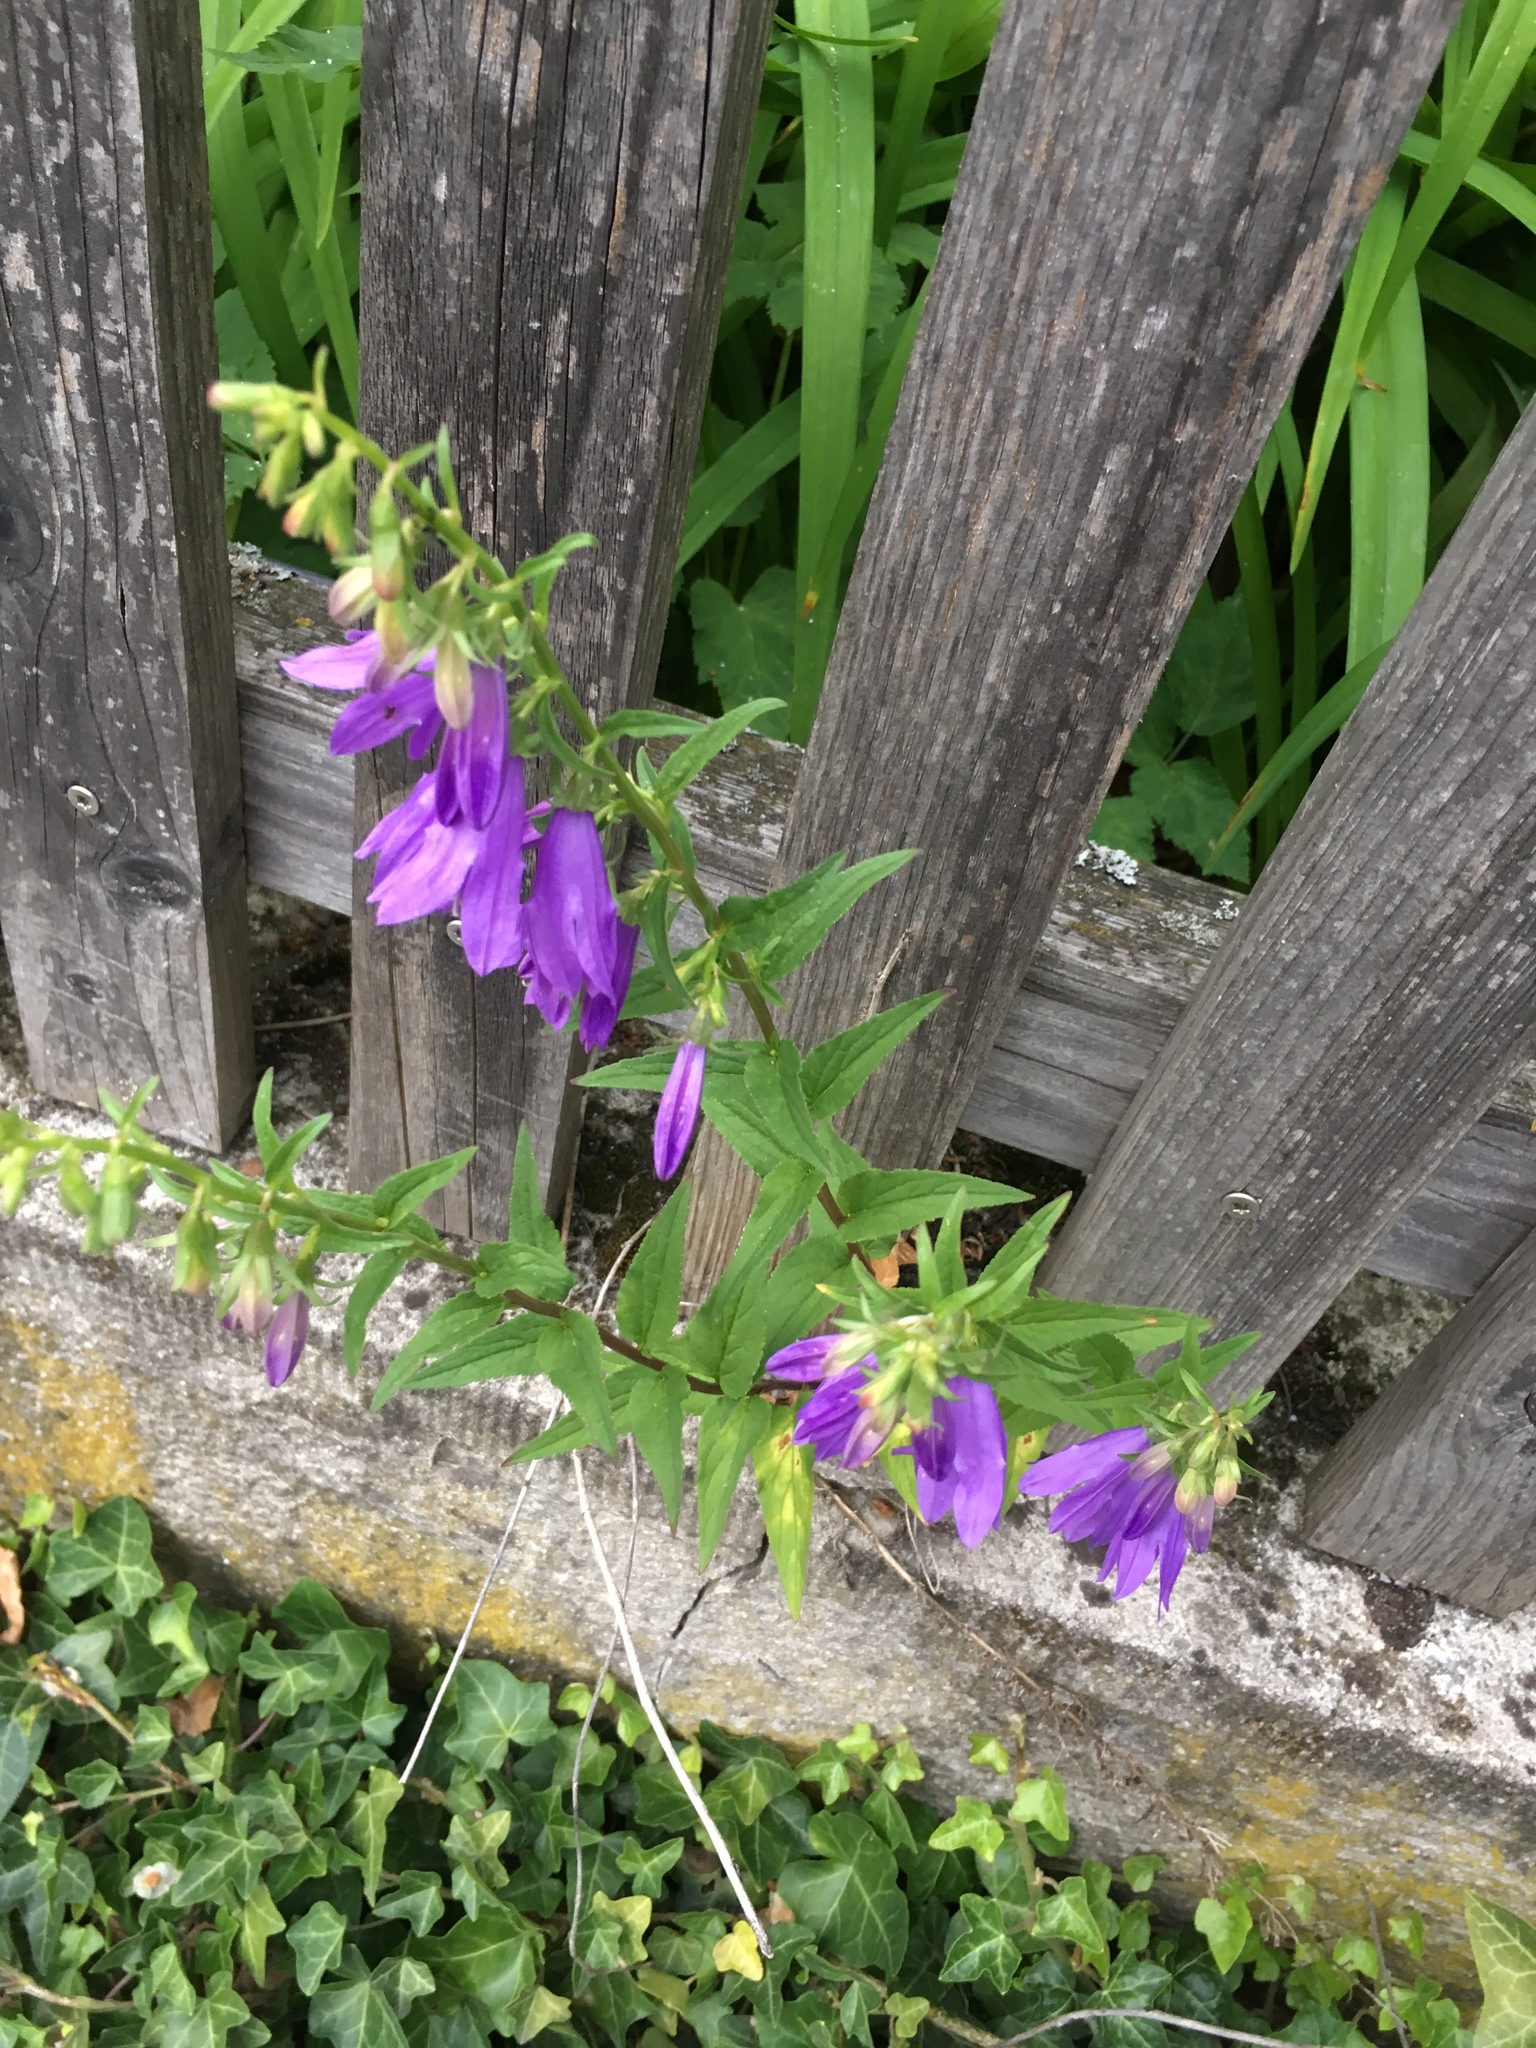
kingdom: Plantae
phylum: Tracheophyta
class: Magnoliopsida
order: Asterales
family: Campanulaceae
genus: Campanula
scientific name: Campanula rapunculoides
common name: Creeping bellflower
